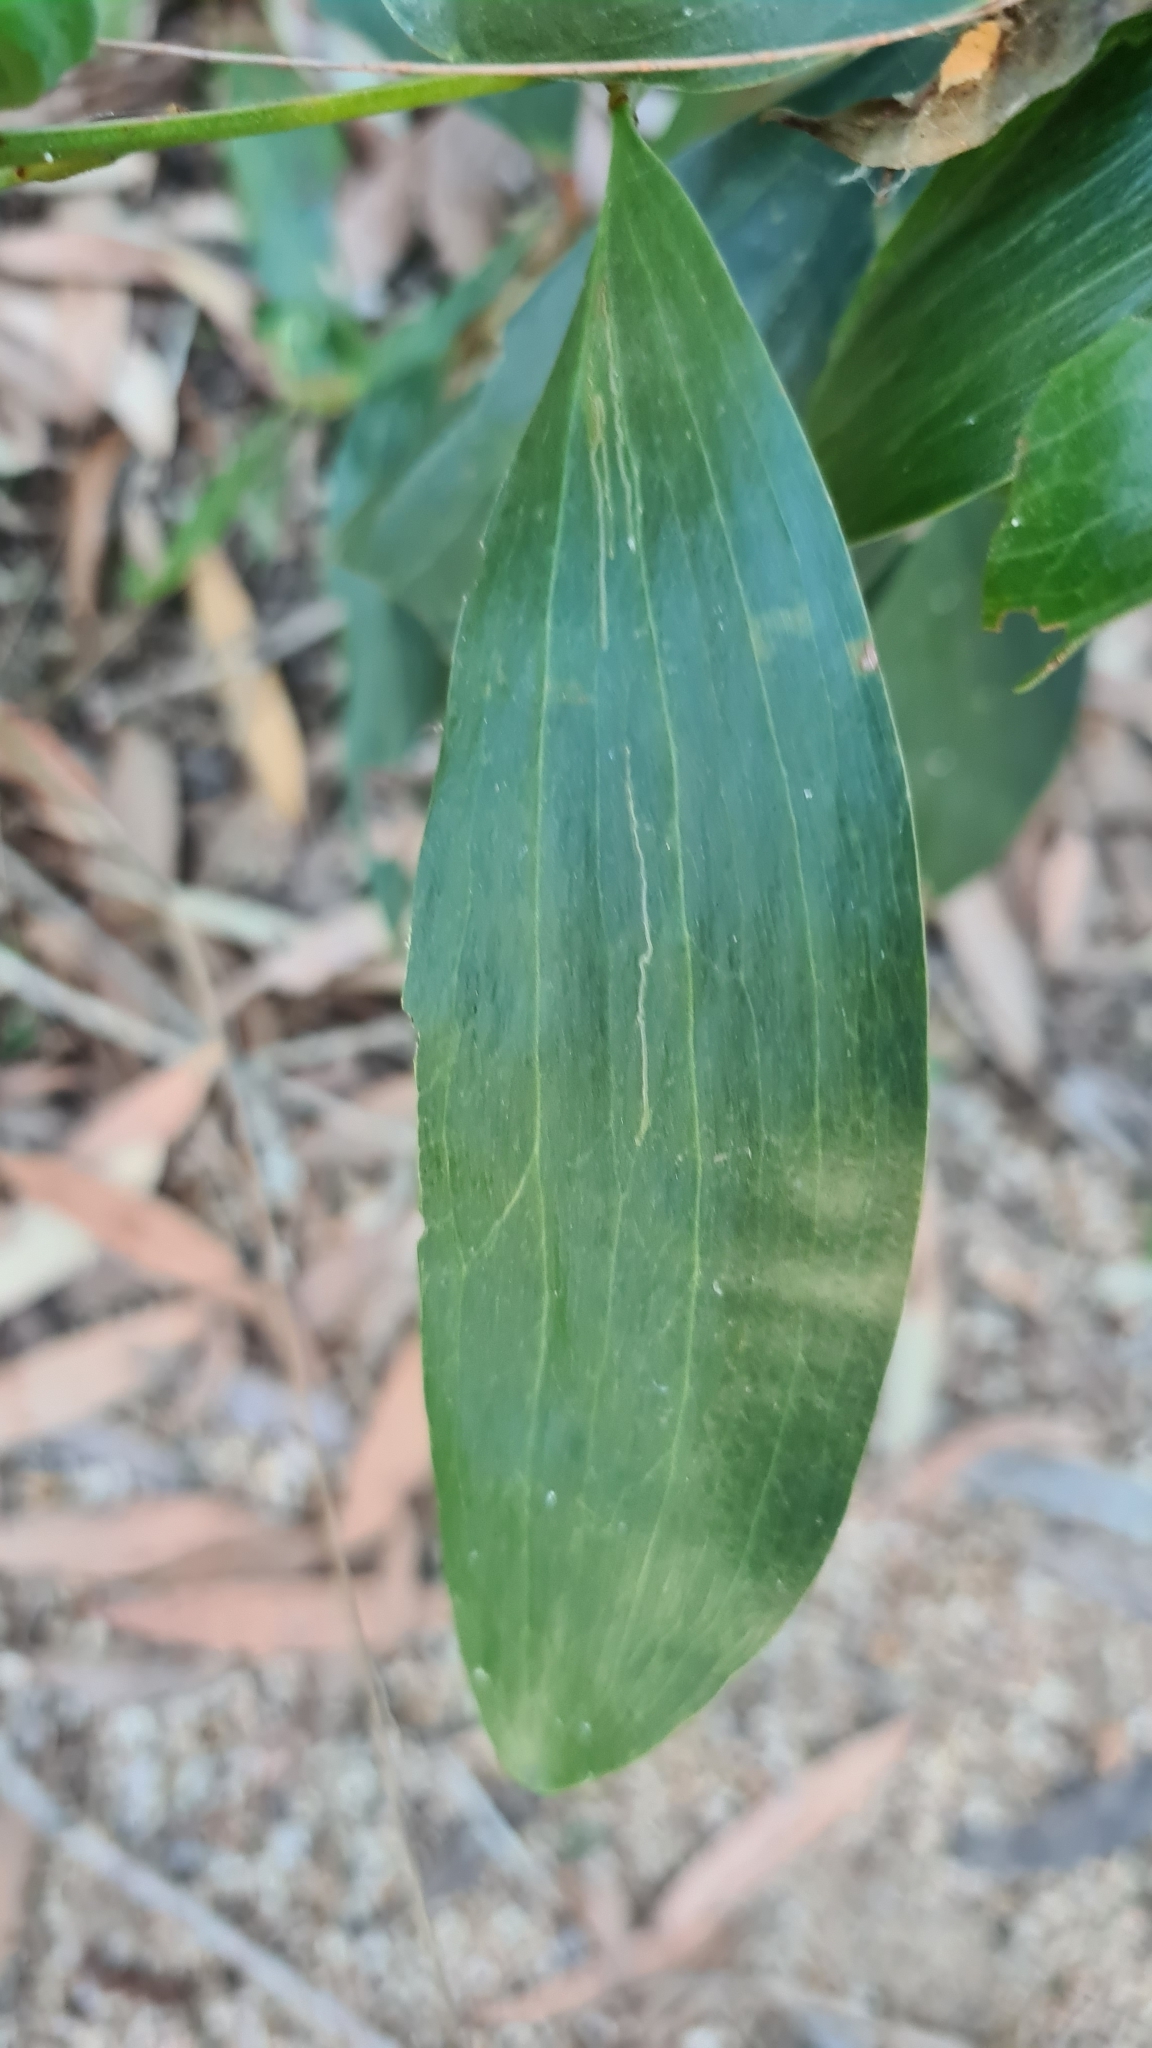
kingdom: Plantae
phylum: Tracheophyta
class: Magnoliopsida
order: Fabales
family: Fabaceae
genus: Acacia
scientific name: Acacia leiocalyx
